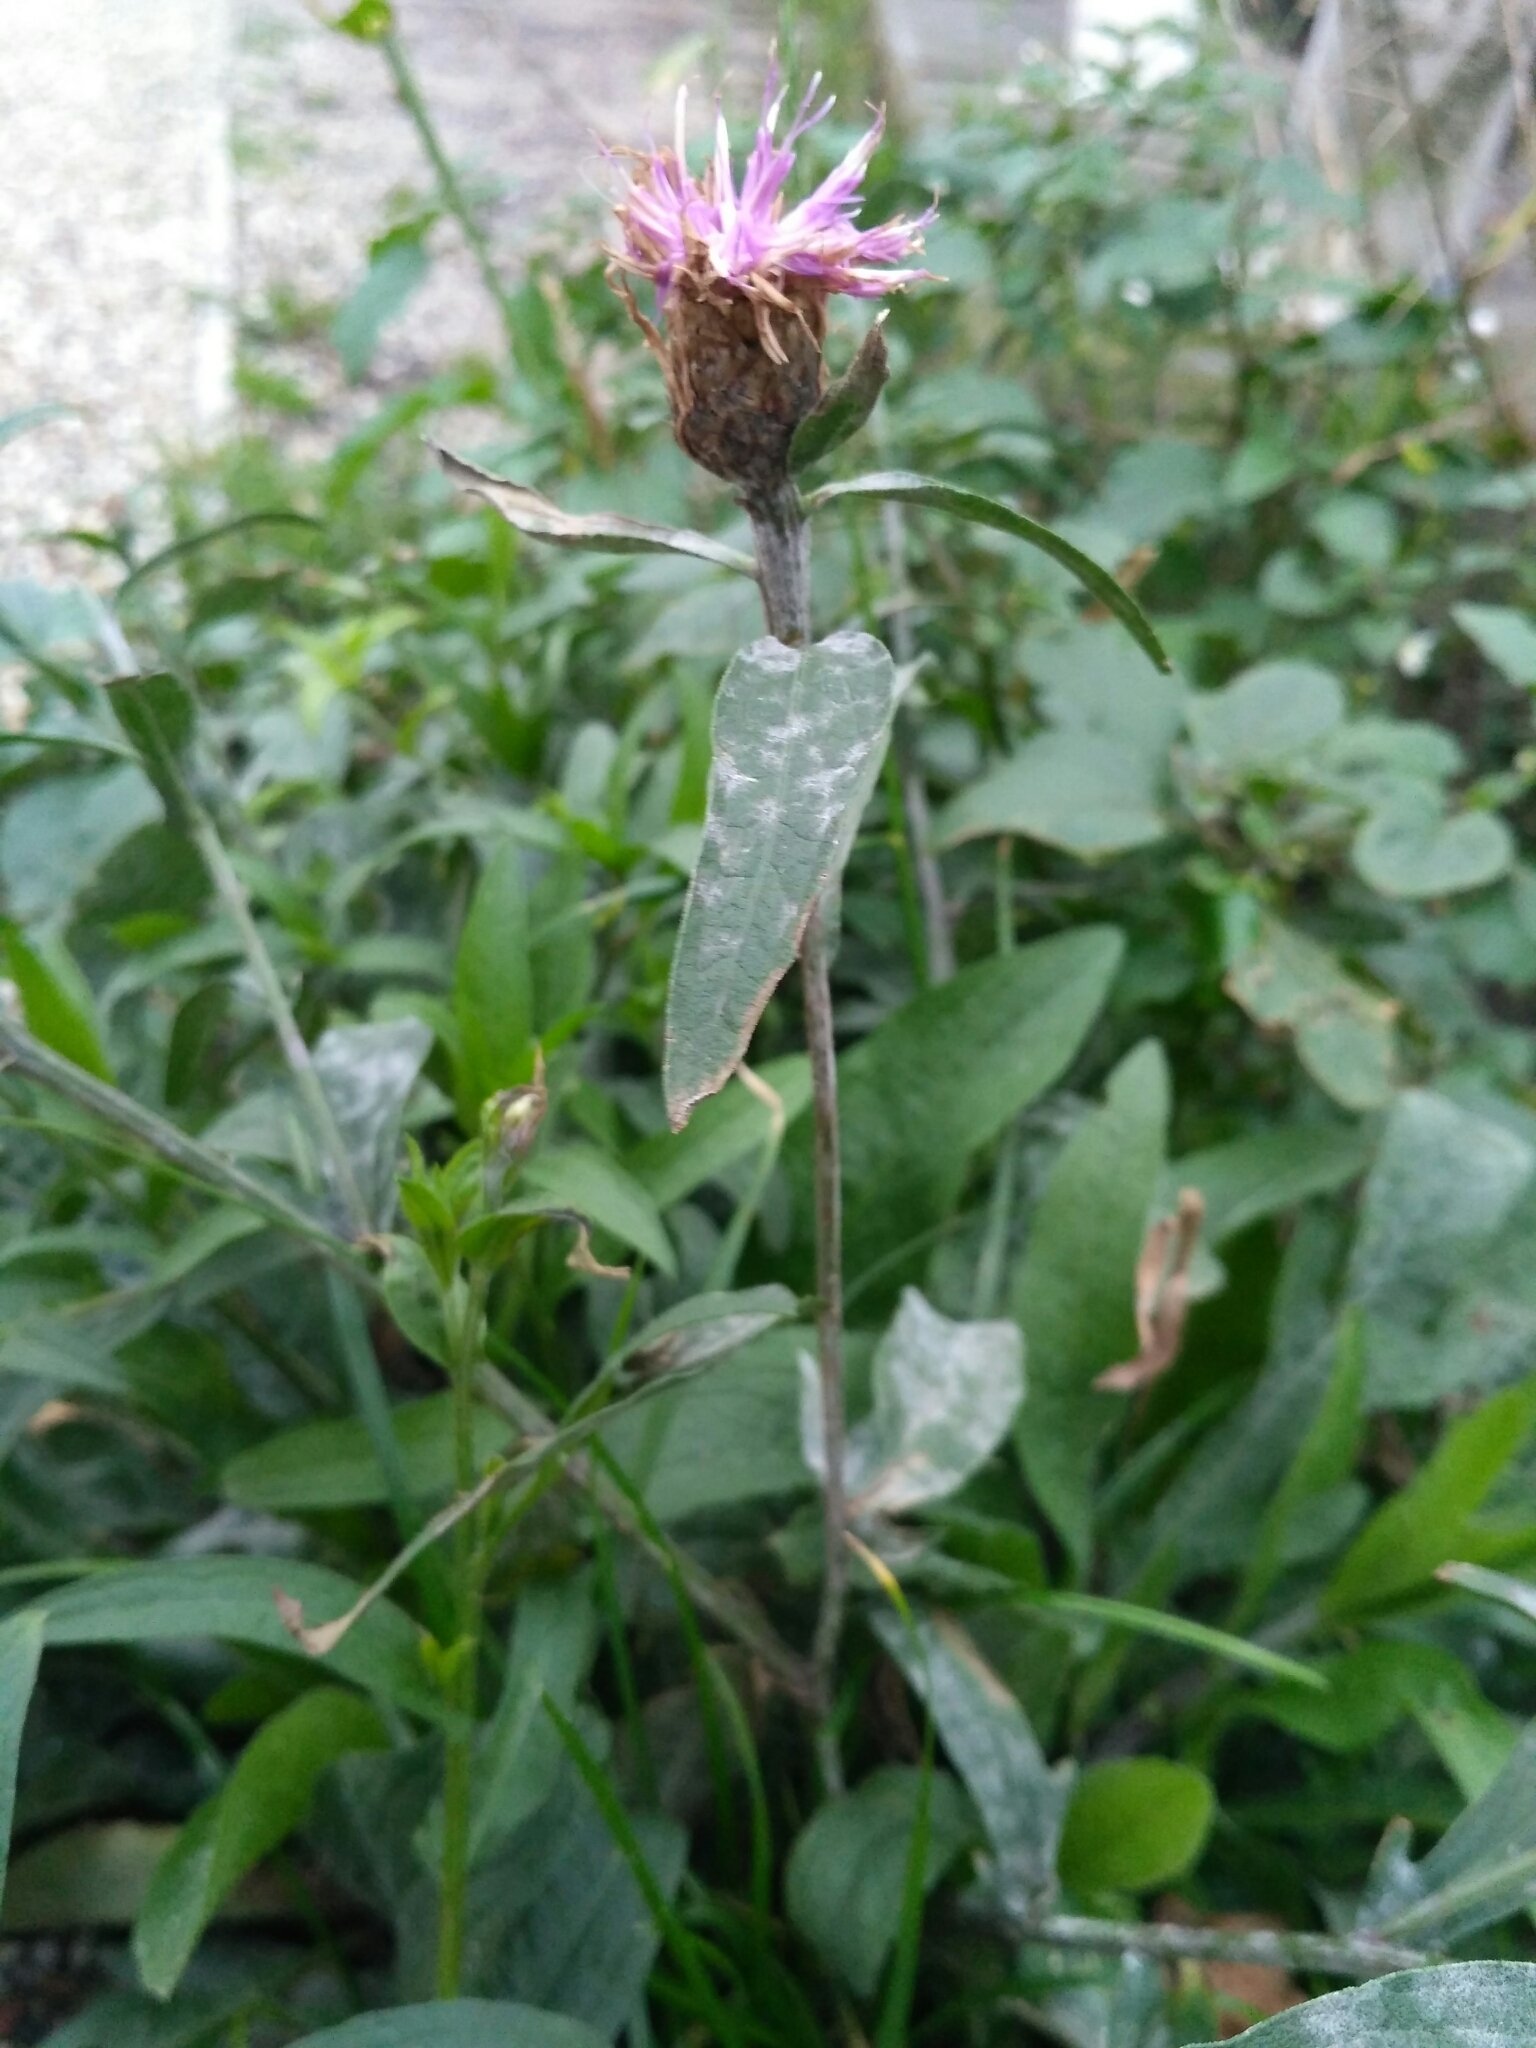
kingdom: Plantae
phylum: Tracheophyta
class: Magnoliopsida
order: Asterales
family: Asteraceae
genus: Centaurea
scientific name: Centaurea jacea
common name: Brown knapweed
